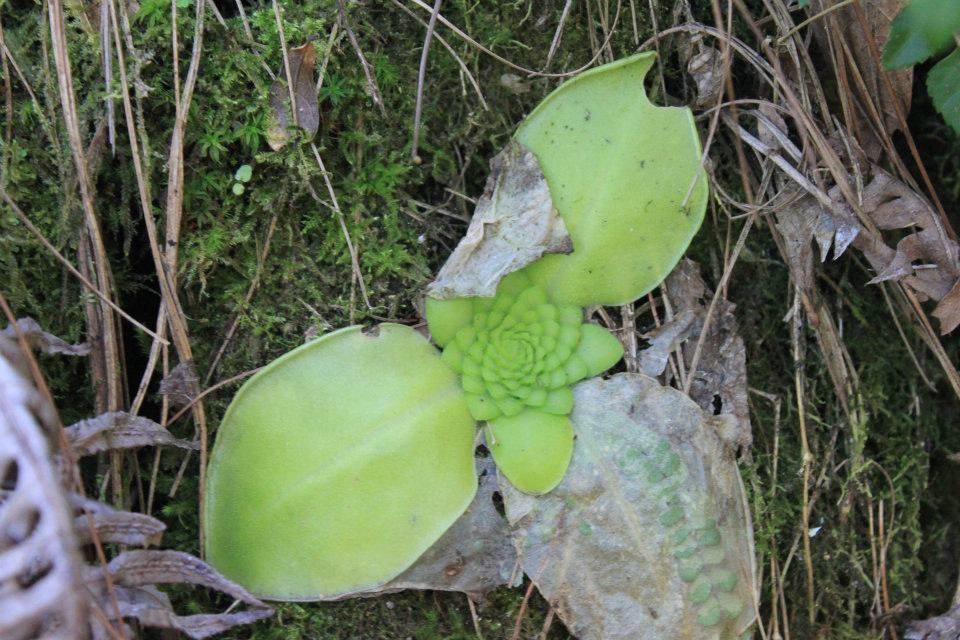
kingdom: Plantae
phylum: Tracheophyta
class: Magnoliopsida
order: Lamiales
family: Lentibulariaceae
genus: Pinguicula
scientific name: Pinguicula moranensis
